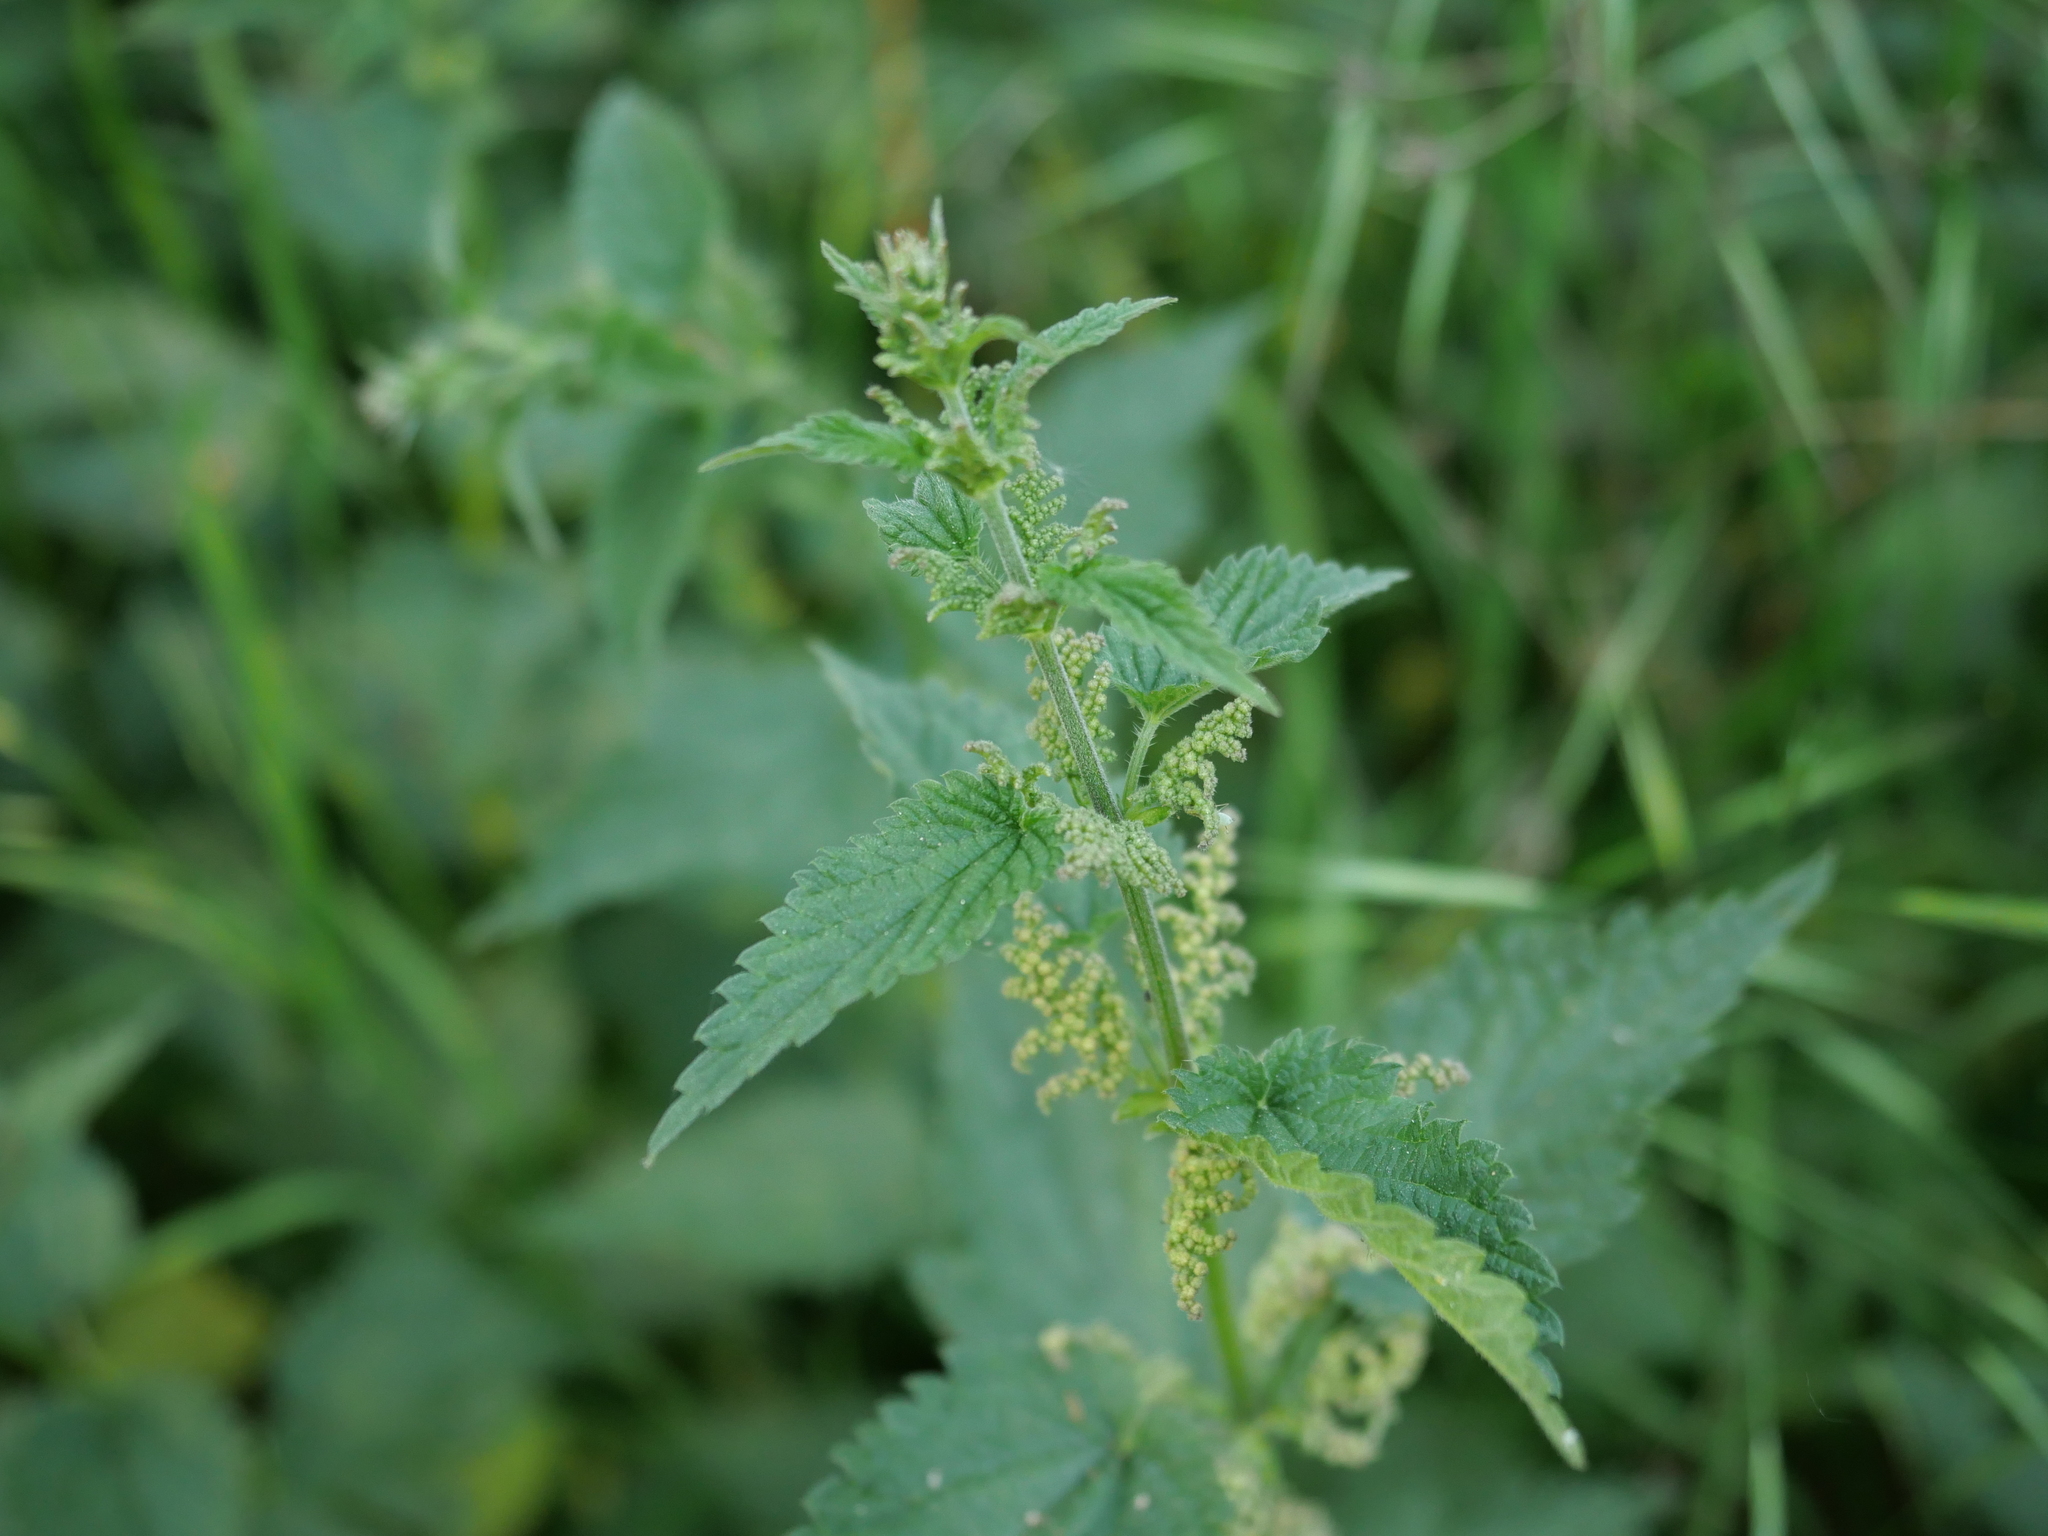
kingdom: Plantae
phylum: Tracheophyta
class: Magnoliopsida
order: Rosales
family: Urticaceae
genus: Urtica
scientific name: Urtica dioica
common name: Common nettle
